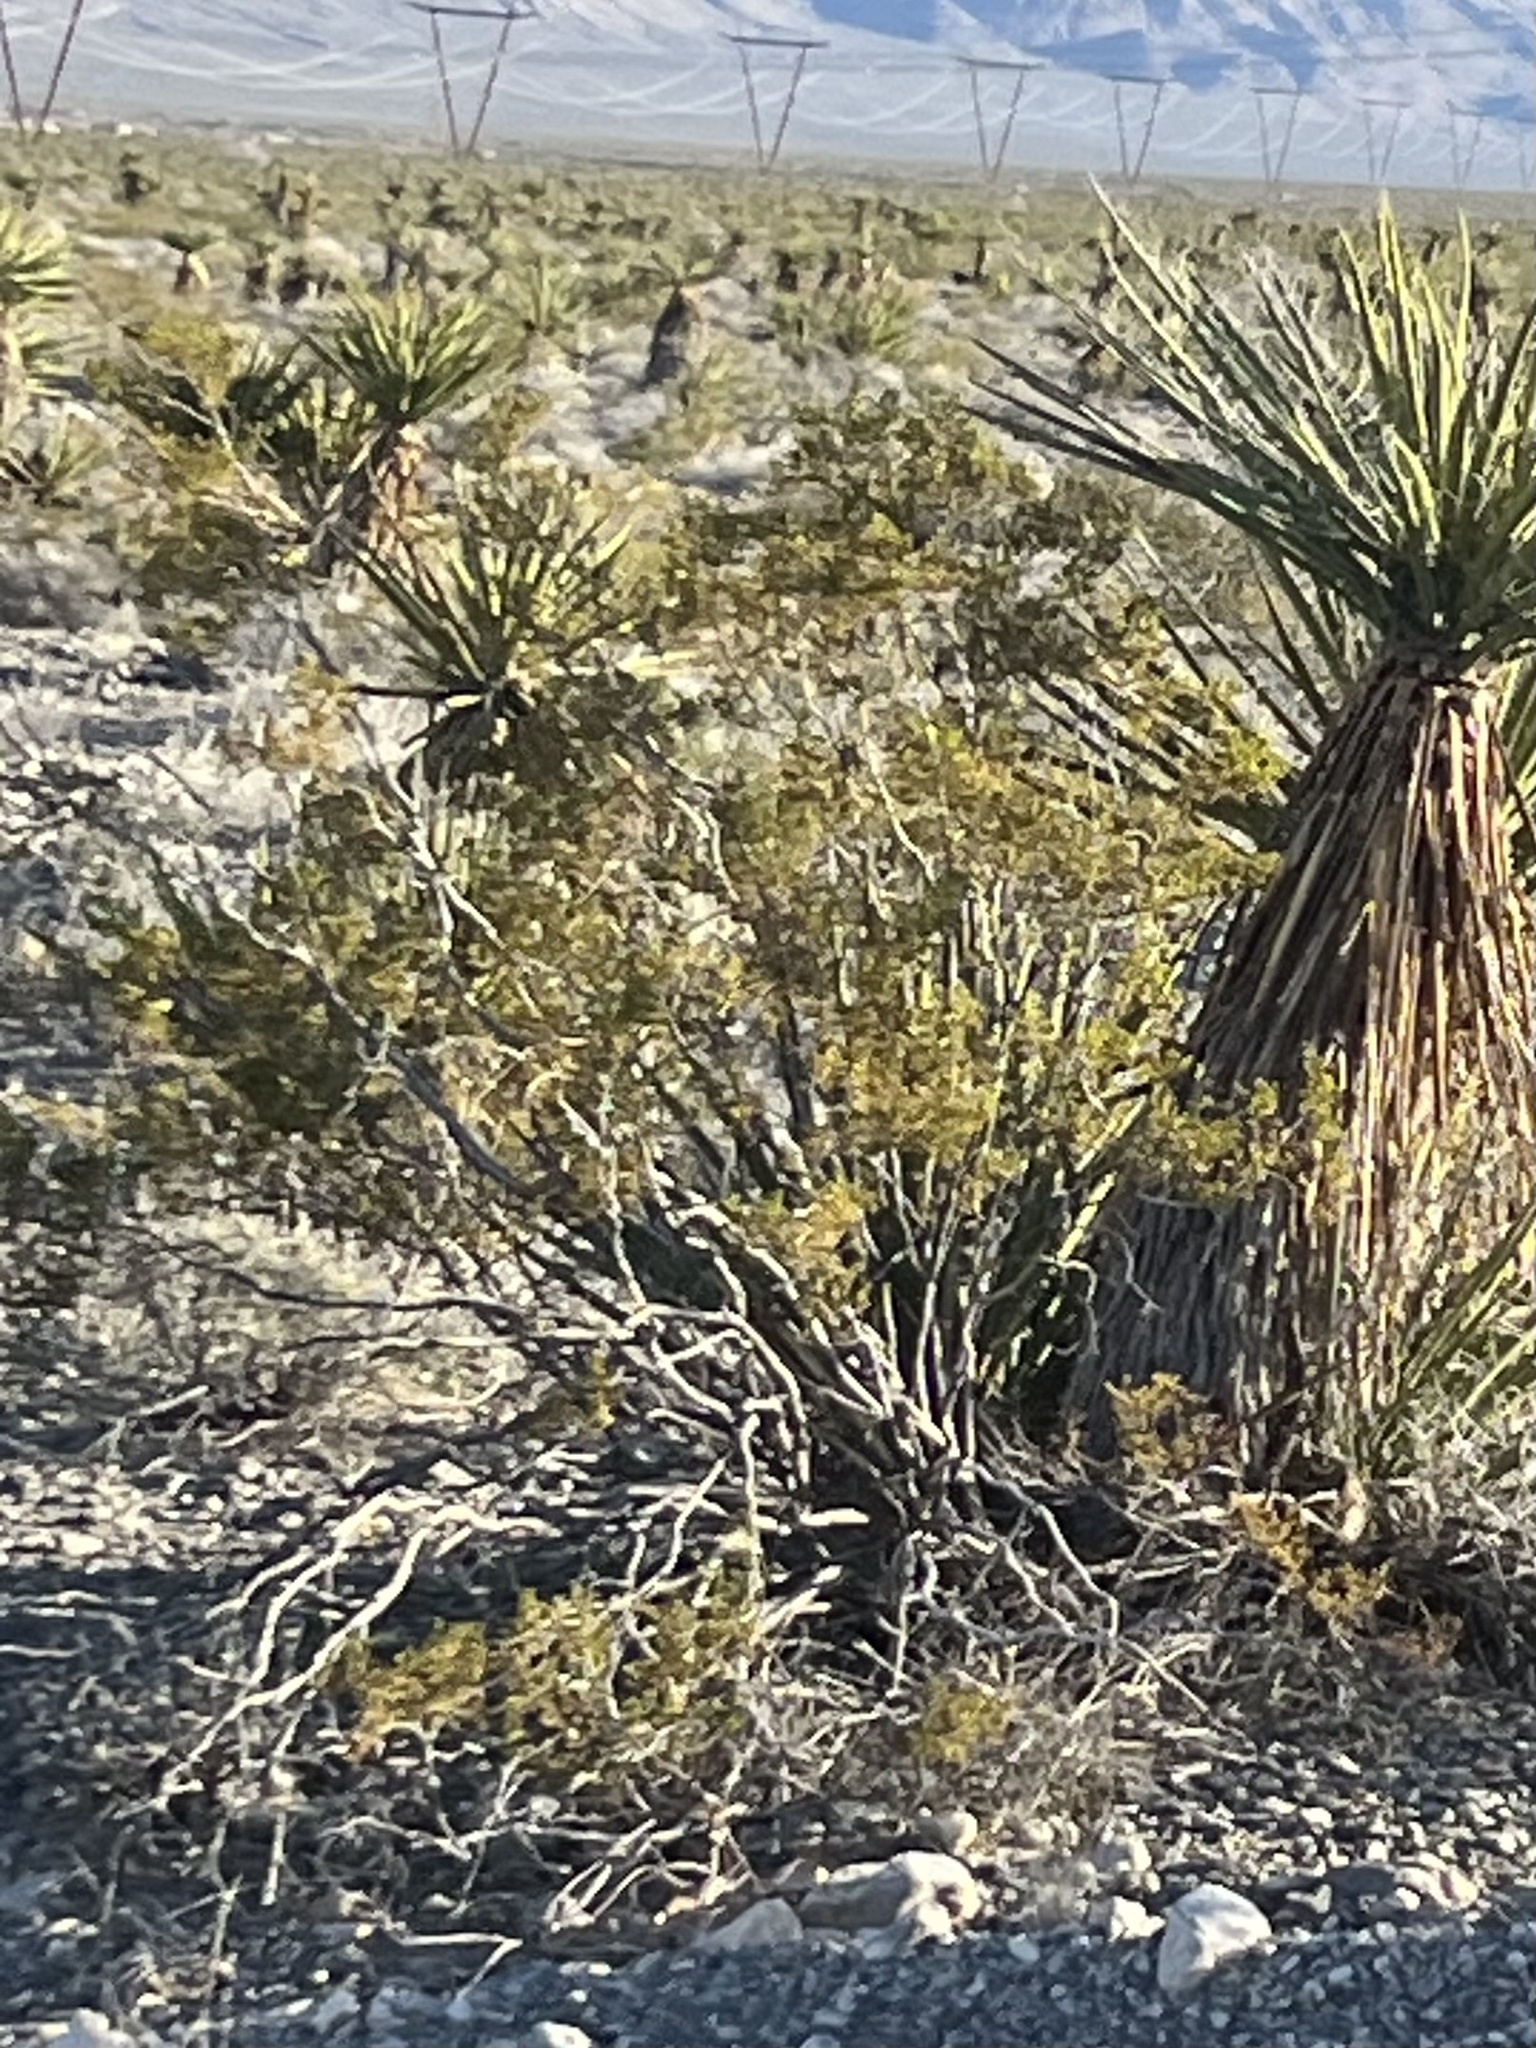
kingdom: Plantae
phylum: Tracheophyta
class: Magnoliopsida
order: Zygophyllales
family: Zygophyllaceae
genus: Larrea
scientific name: Larrea tridentata
